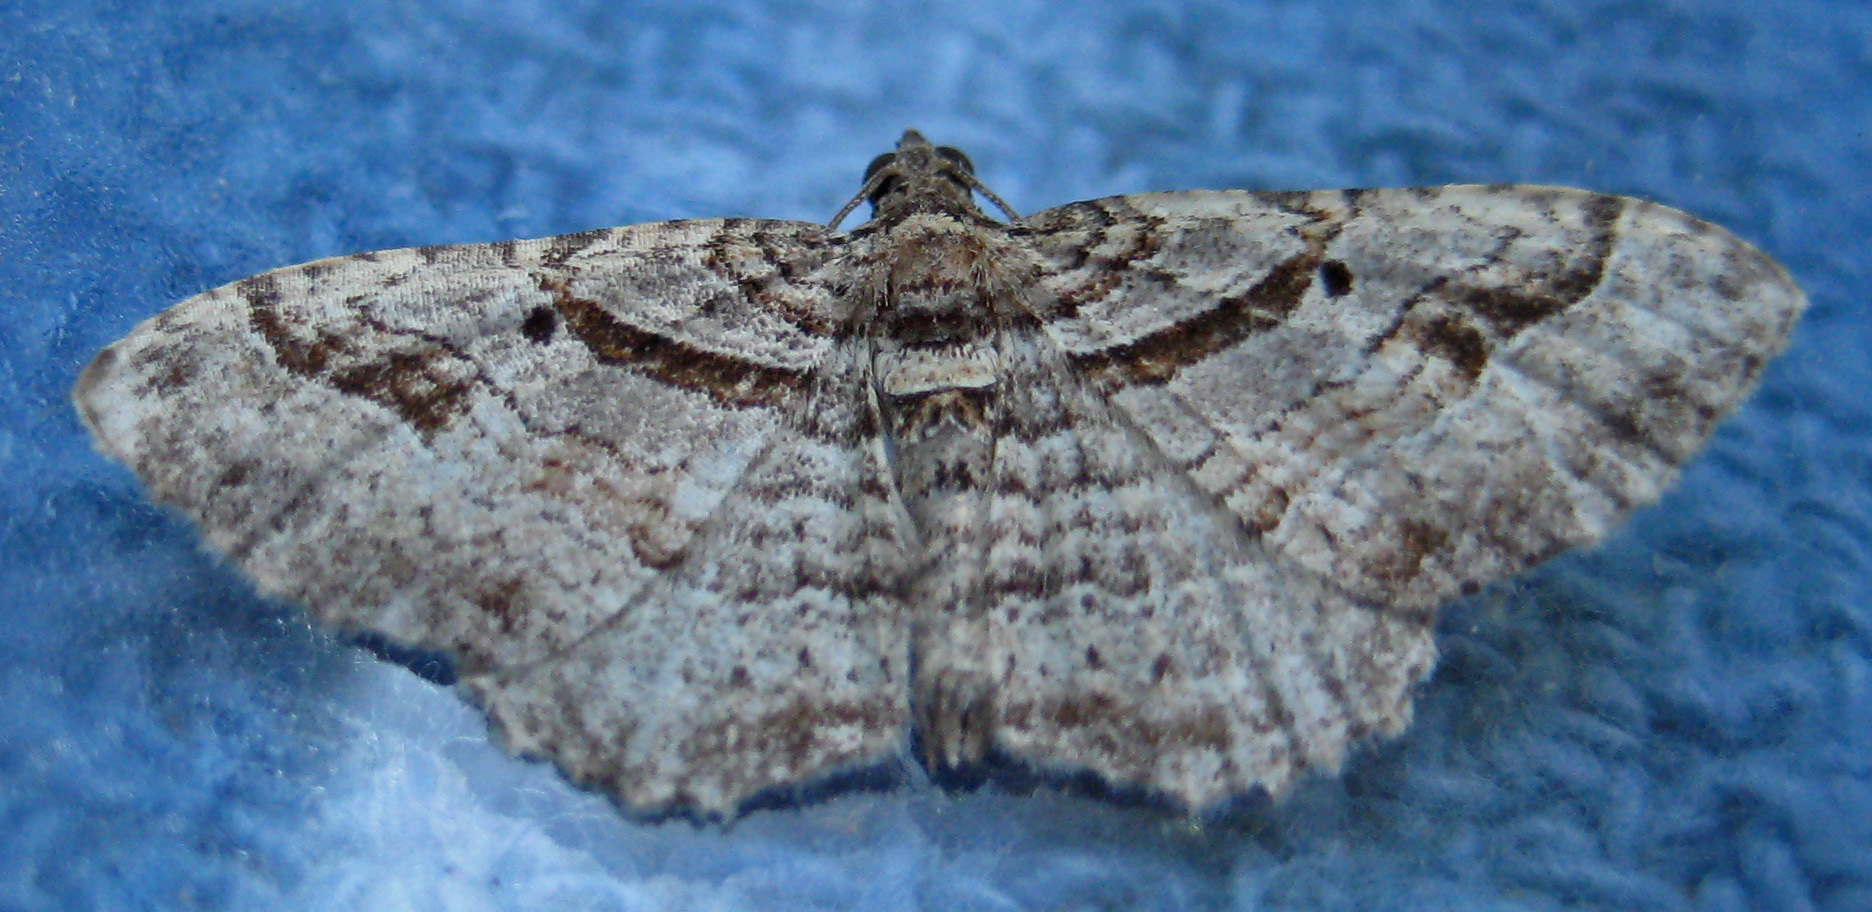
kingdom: Animalia
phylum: Arthropoda
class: Insecta
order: Lepidoptera
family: Geometridae
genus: Costaconvexa
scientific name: Costaconvexa centrostrigaria
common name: Bent-line carpet
